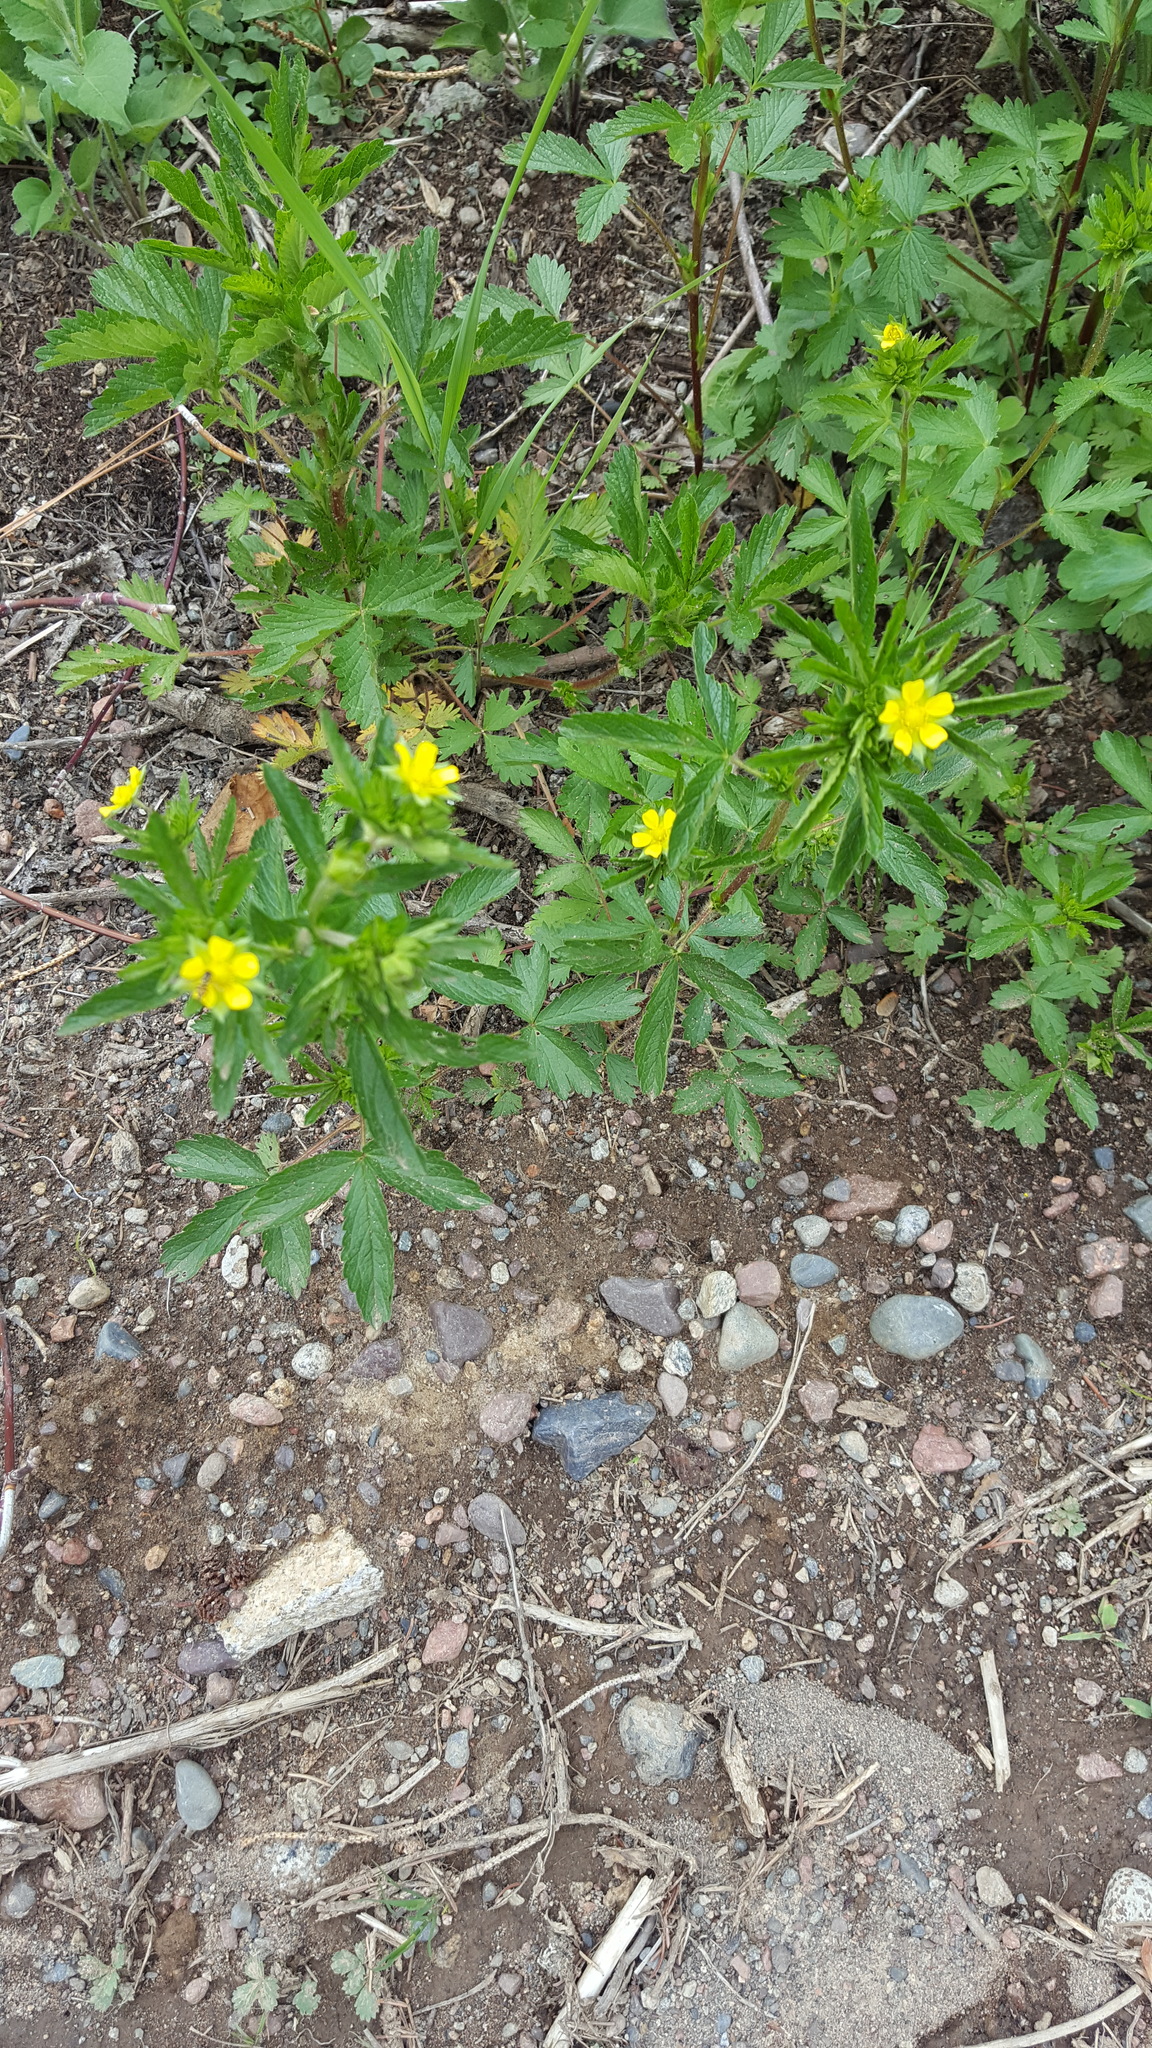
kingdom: Plantae
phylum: Tracheophyta
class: Magnoliopsida
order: Rosales
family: Rosaceae
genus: Potentilla
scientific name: Potentilla norvegica
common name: Ternate-leaved cinquefoil
